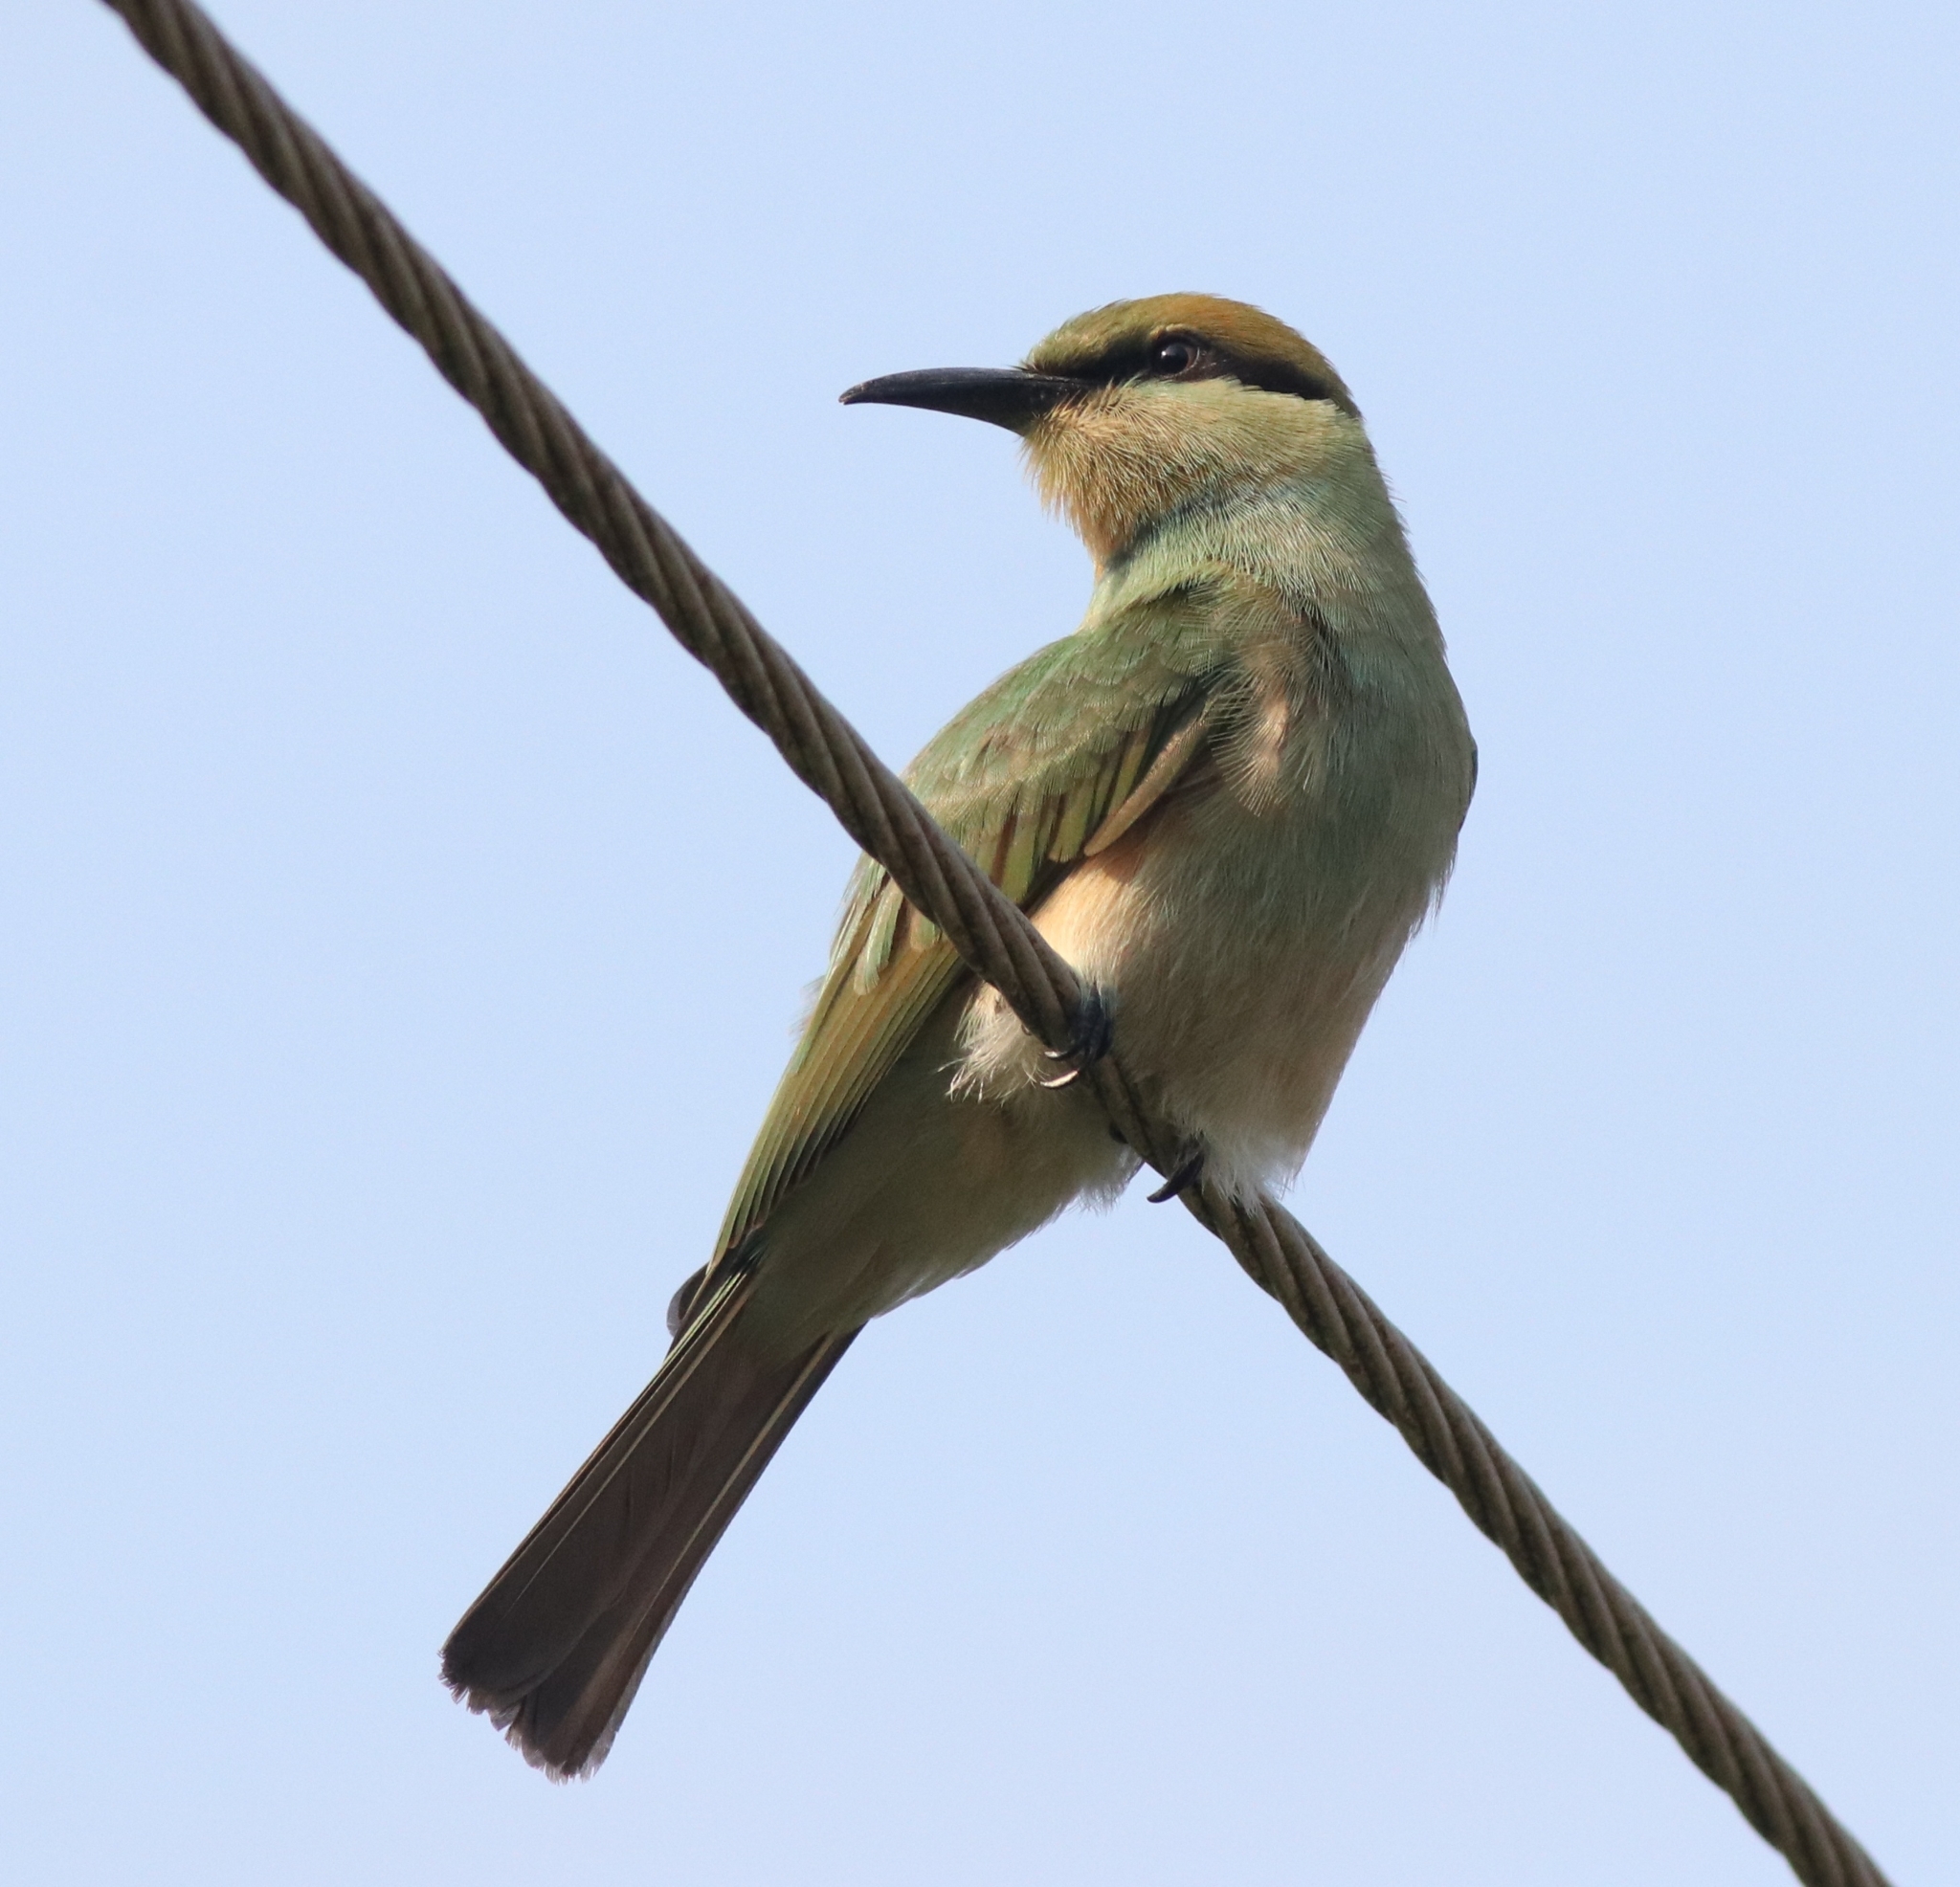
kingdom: Animalia
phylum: Chordata
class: Aves
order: Coraciiformes
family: Meropidae
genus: Merops
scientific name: Merops orientalis
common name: Green bee-eater
